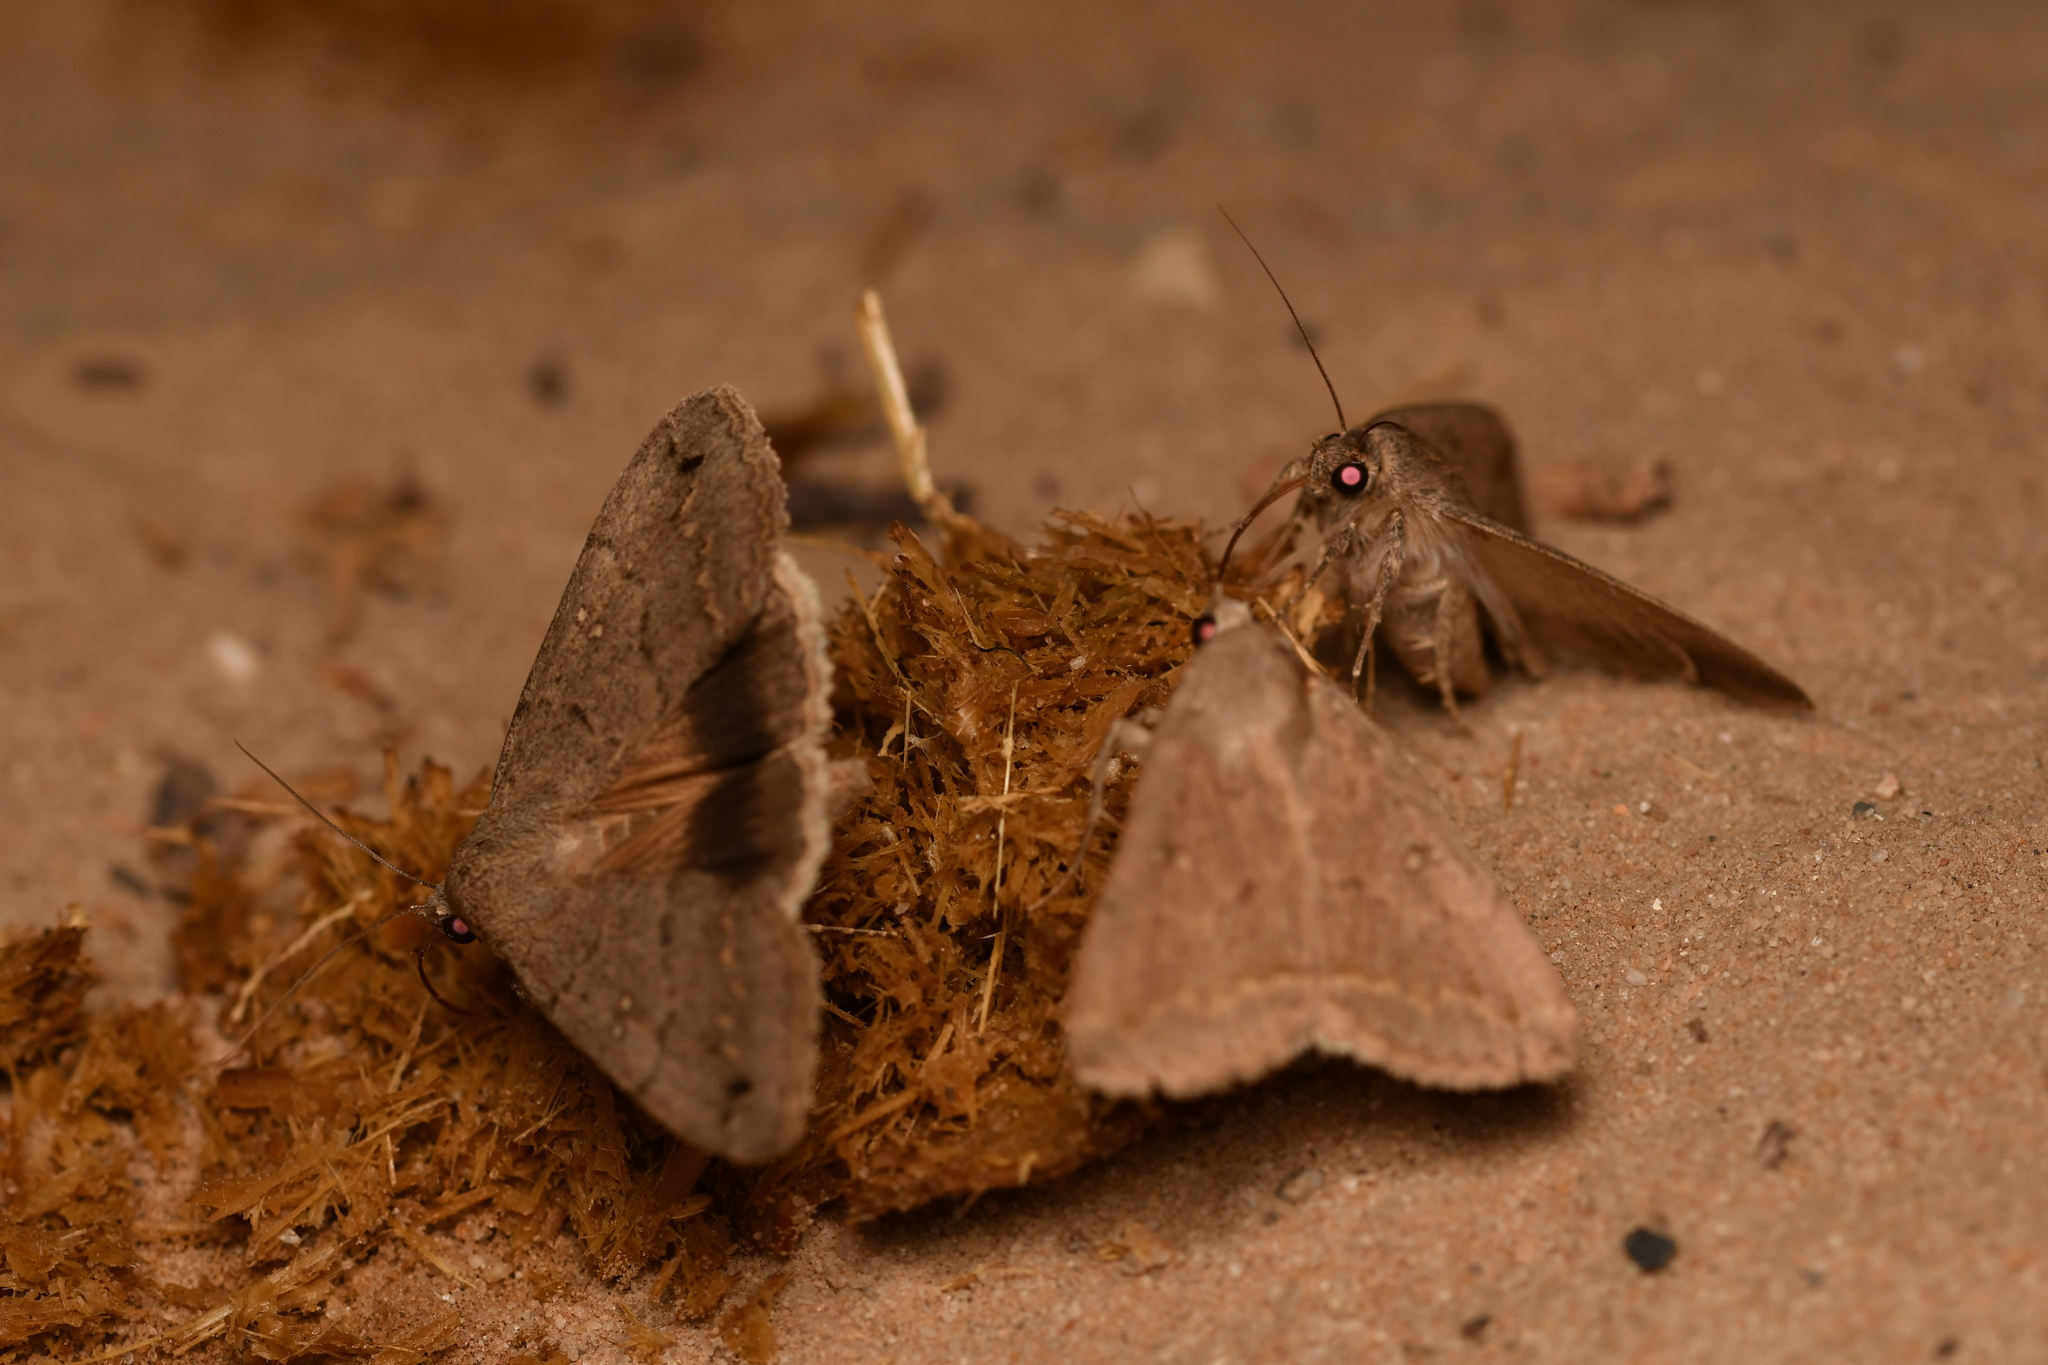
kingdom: Animalia
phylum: Arthropoda
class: Insecta
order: Lepidoptera
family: Erebidae
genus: Clytie
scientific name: Clytie illunaris
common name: Trent double-stripe
